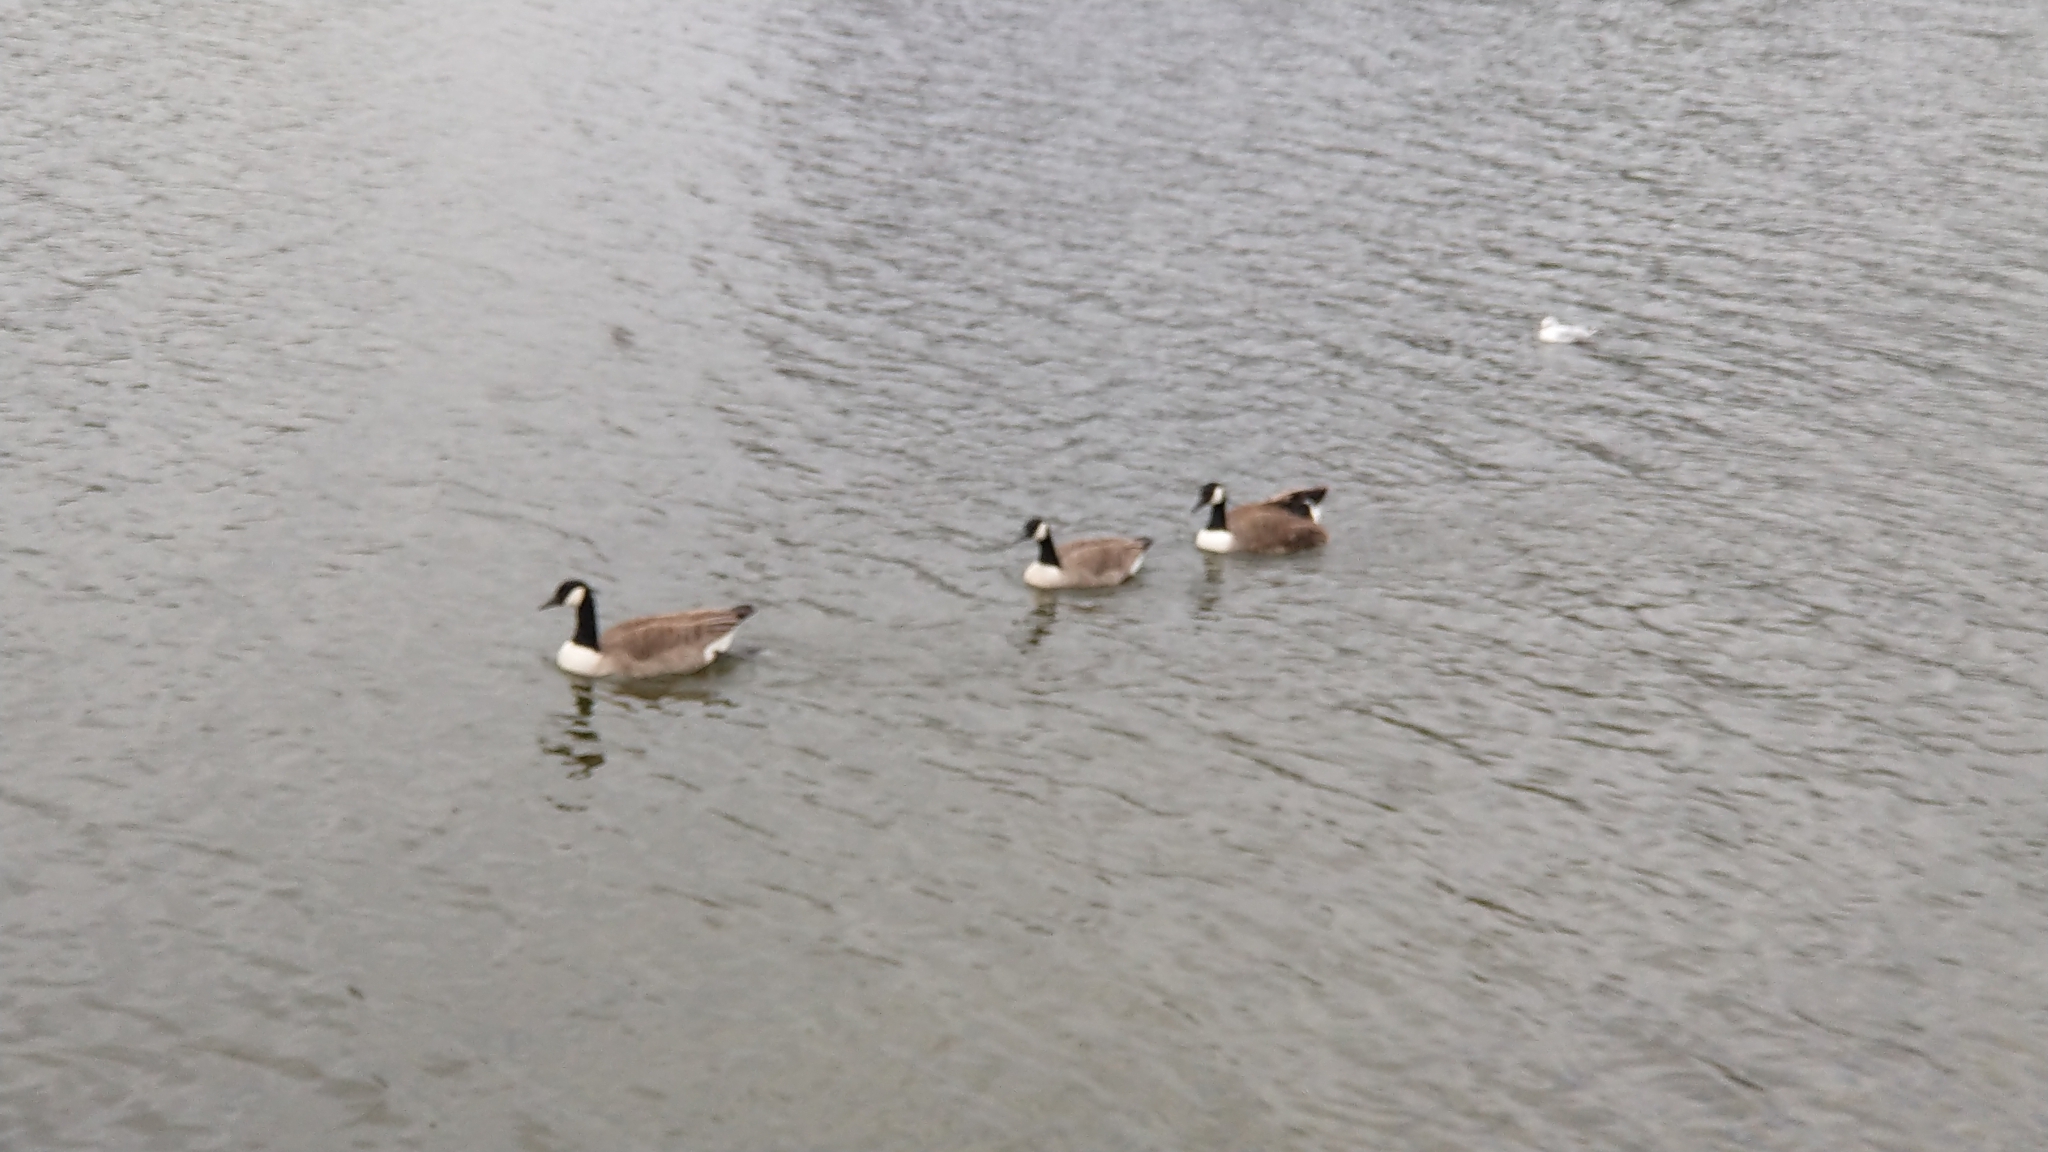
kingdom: Animalia
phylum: Chordata
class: Aves
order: Anseriformes
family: Anatidae
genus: Branta
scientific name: Branta canadensis
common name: Canada goose
